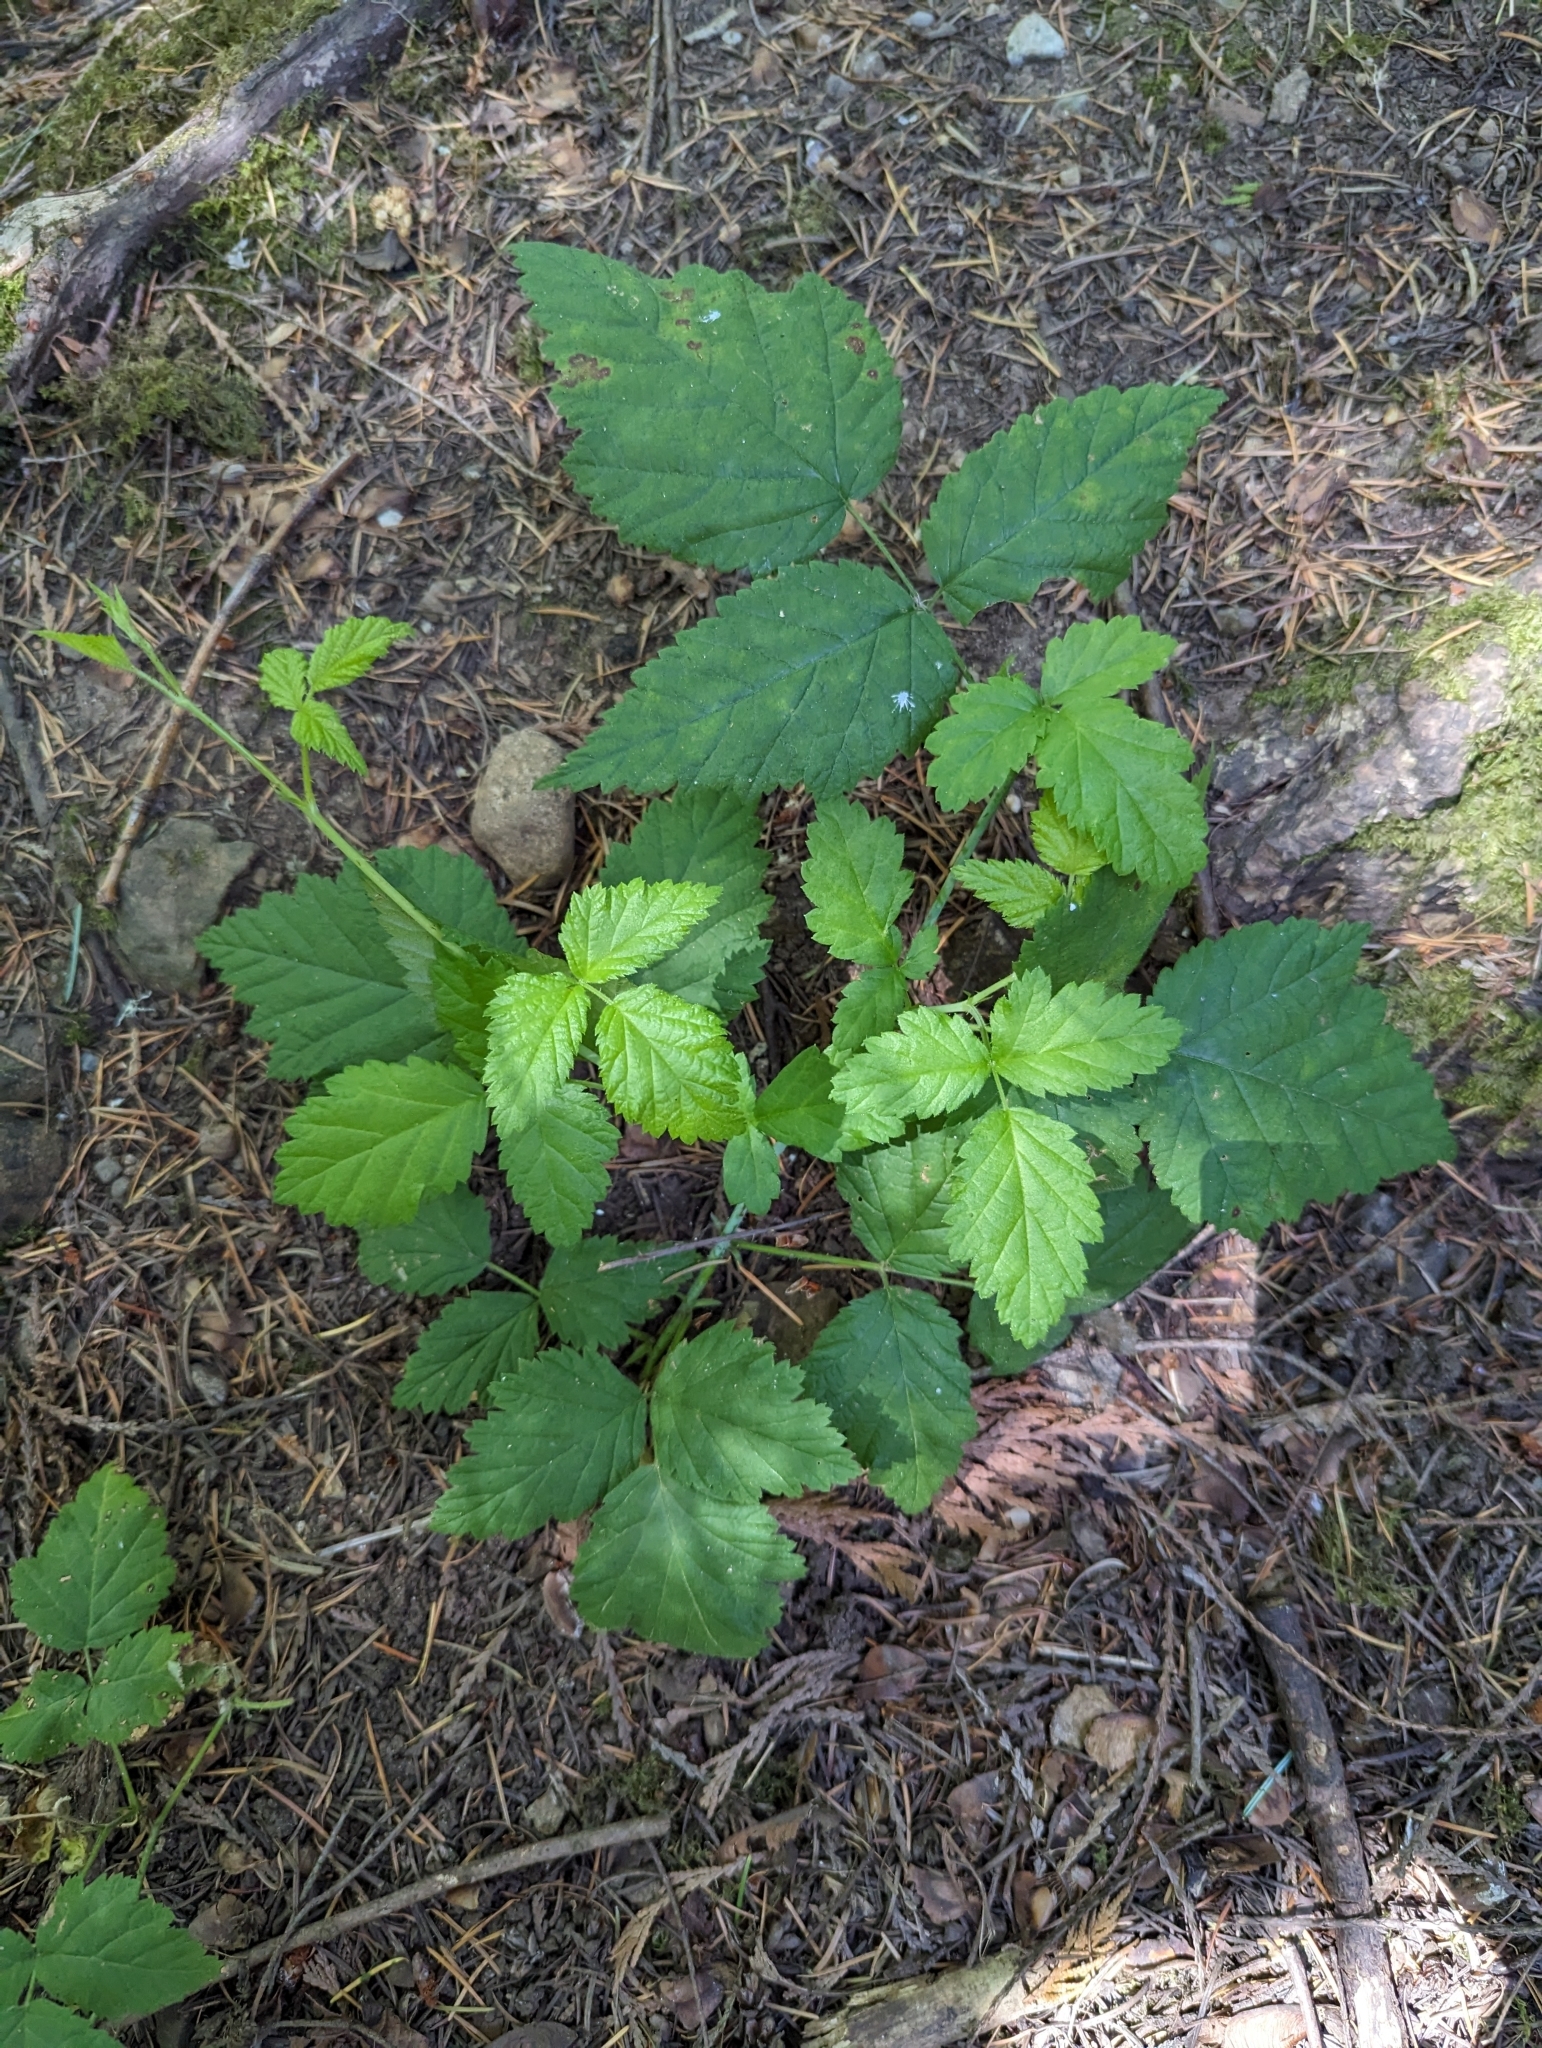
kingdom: Plantae
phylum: Tracheophyta
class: Magnoliopsida
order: Rosales
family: Rosaceae
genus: Rubus
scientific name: Rubus ursinus
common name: Pacific blackberry
